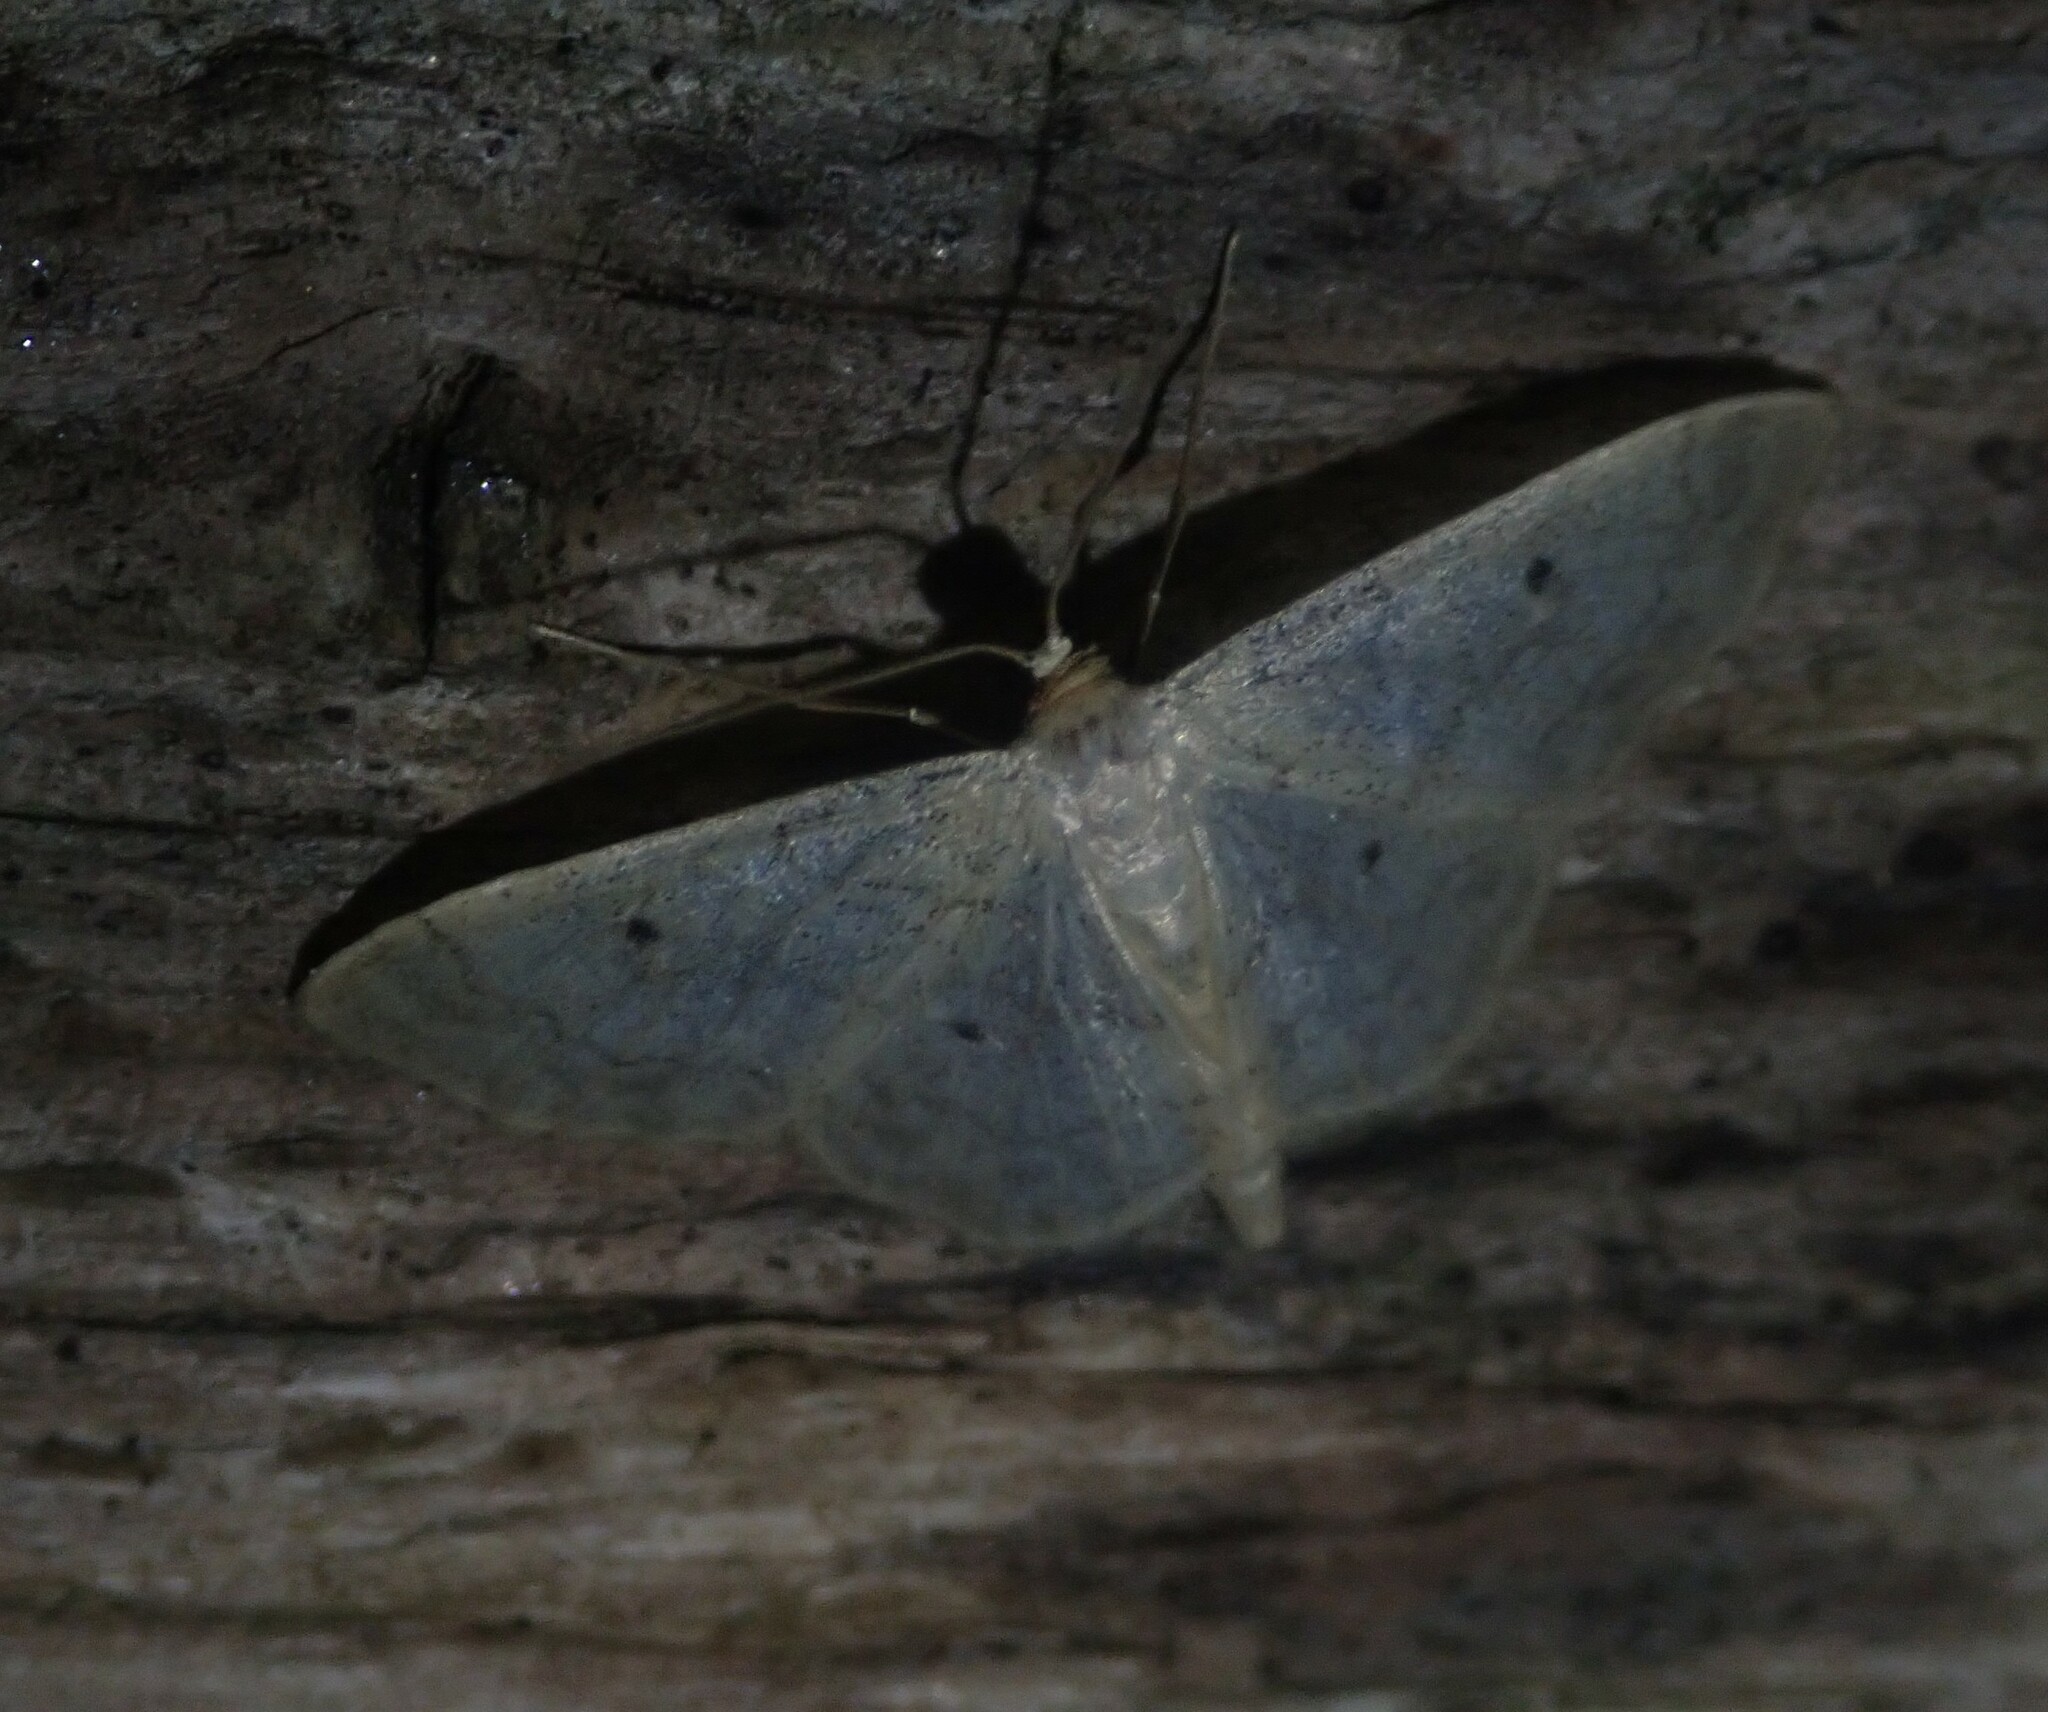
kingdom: Animalia
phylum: Arthropoda
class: Insecta
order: Lepidoptera
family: Geometridae
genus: Idaea
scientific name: Idaea biselata
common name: Small fan-footed wave
